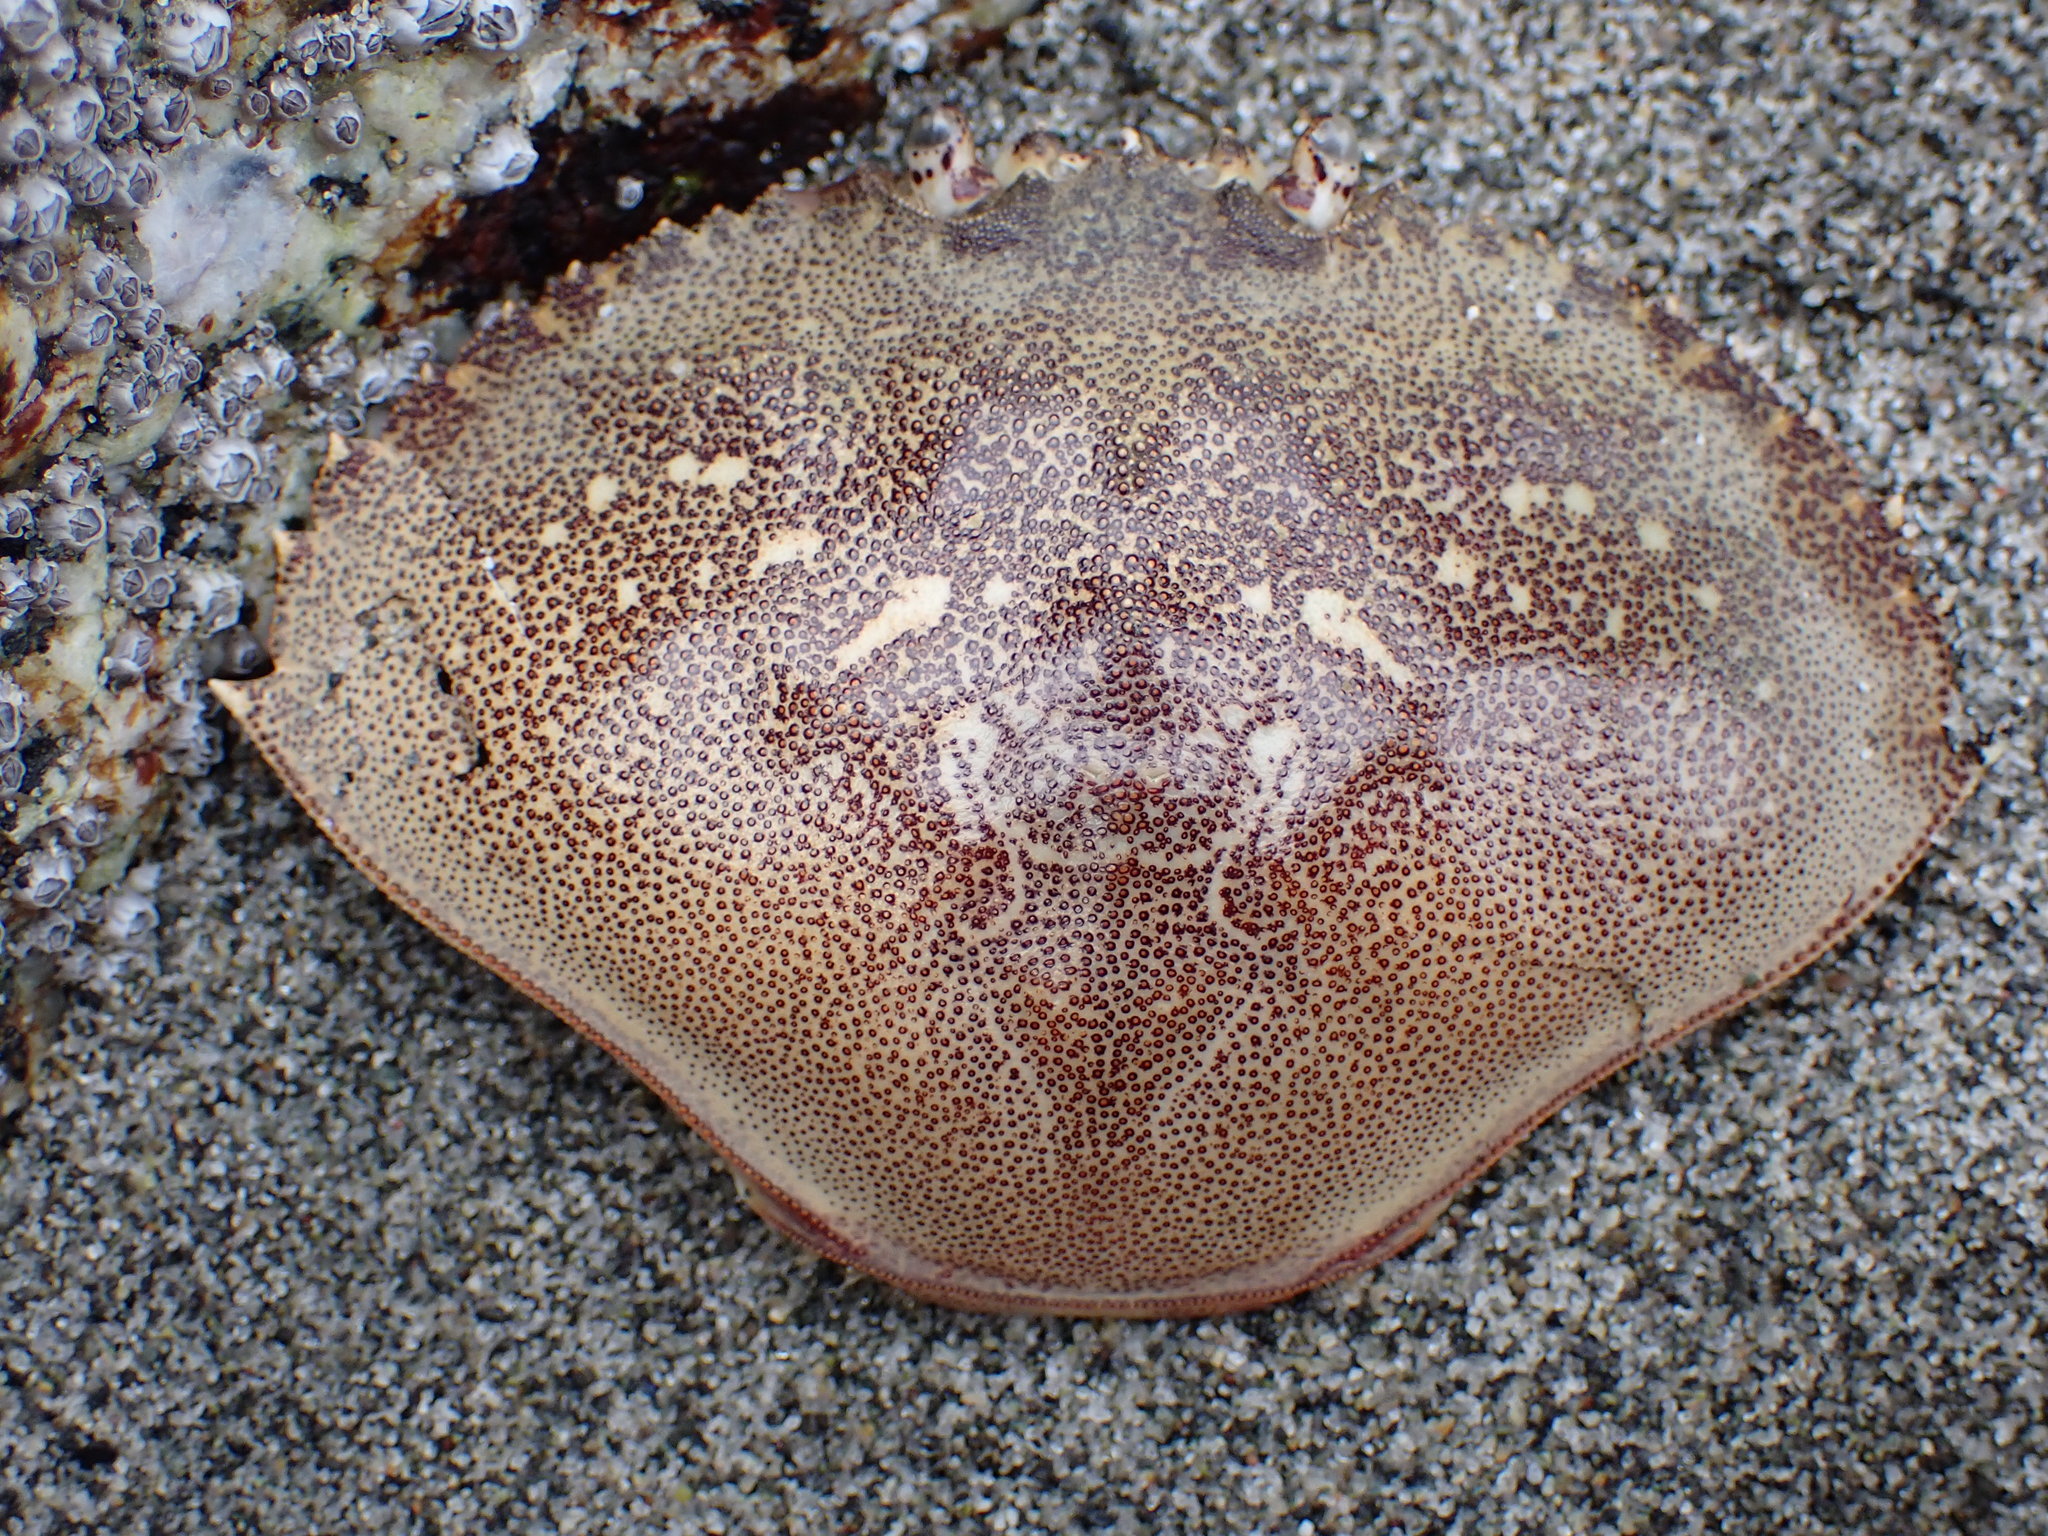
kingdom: Animalia
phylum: Arthropoda
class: Malacostraca
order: Decapoda
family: Cancridae
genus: Metacarcinus
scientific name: Metacarcinus magister
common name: Californian crab
